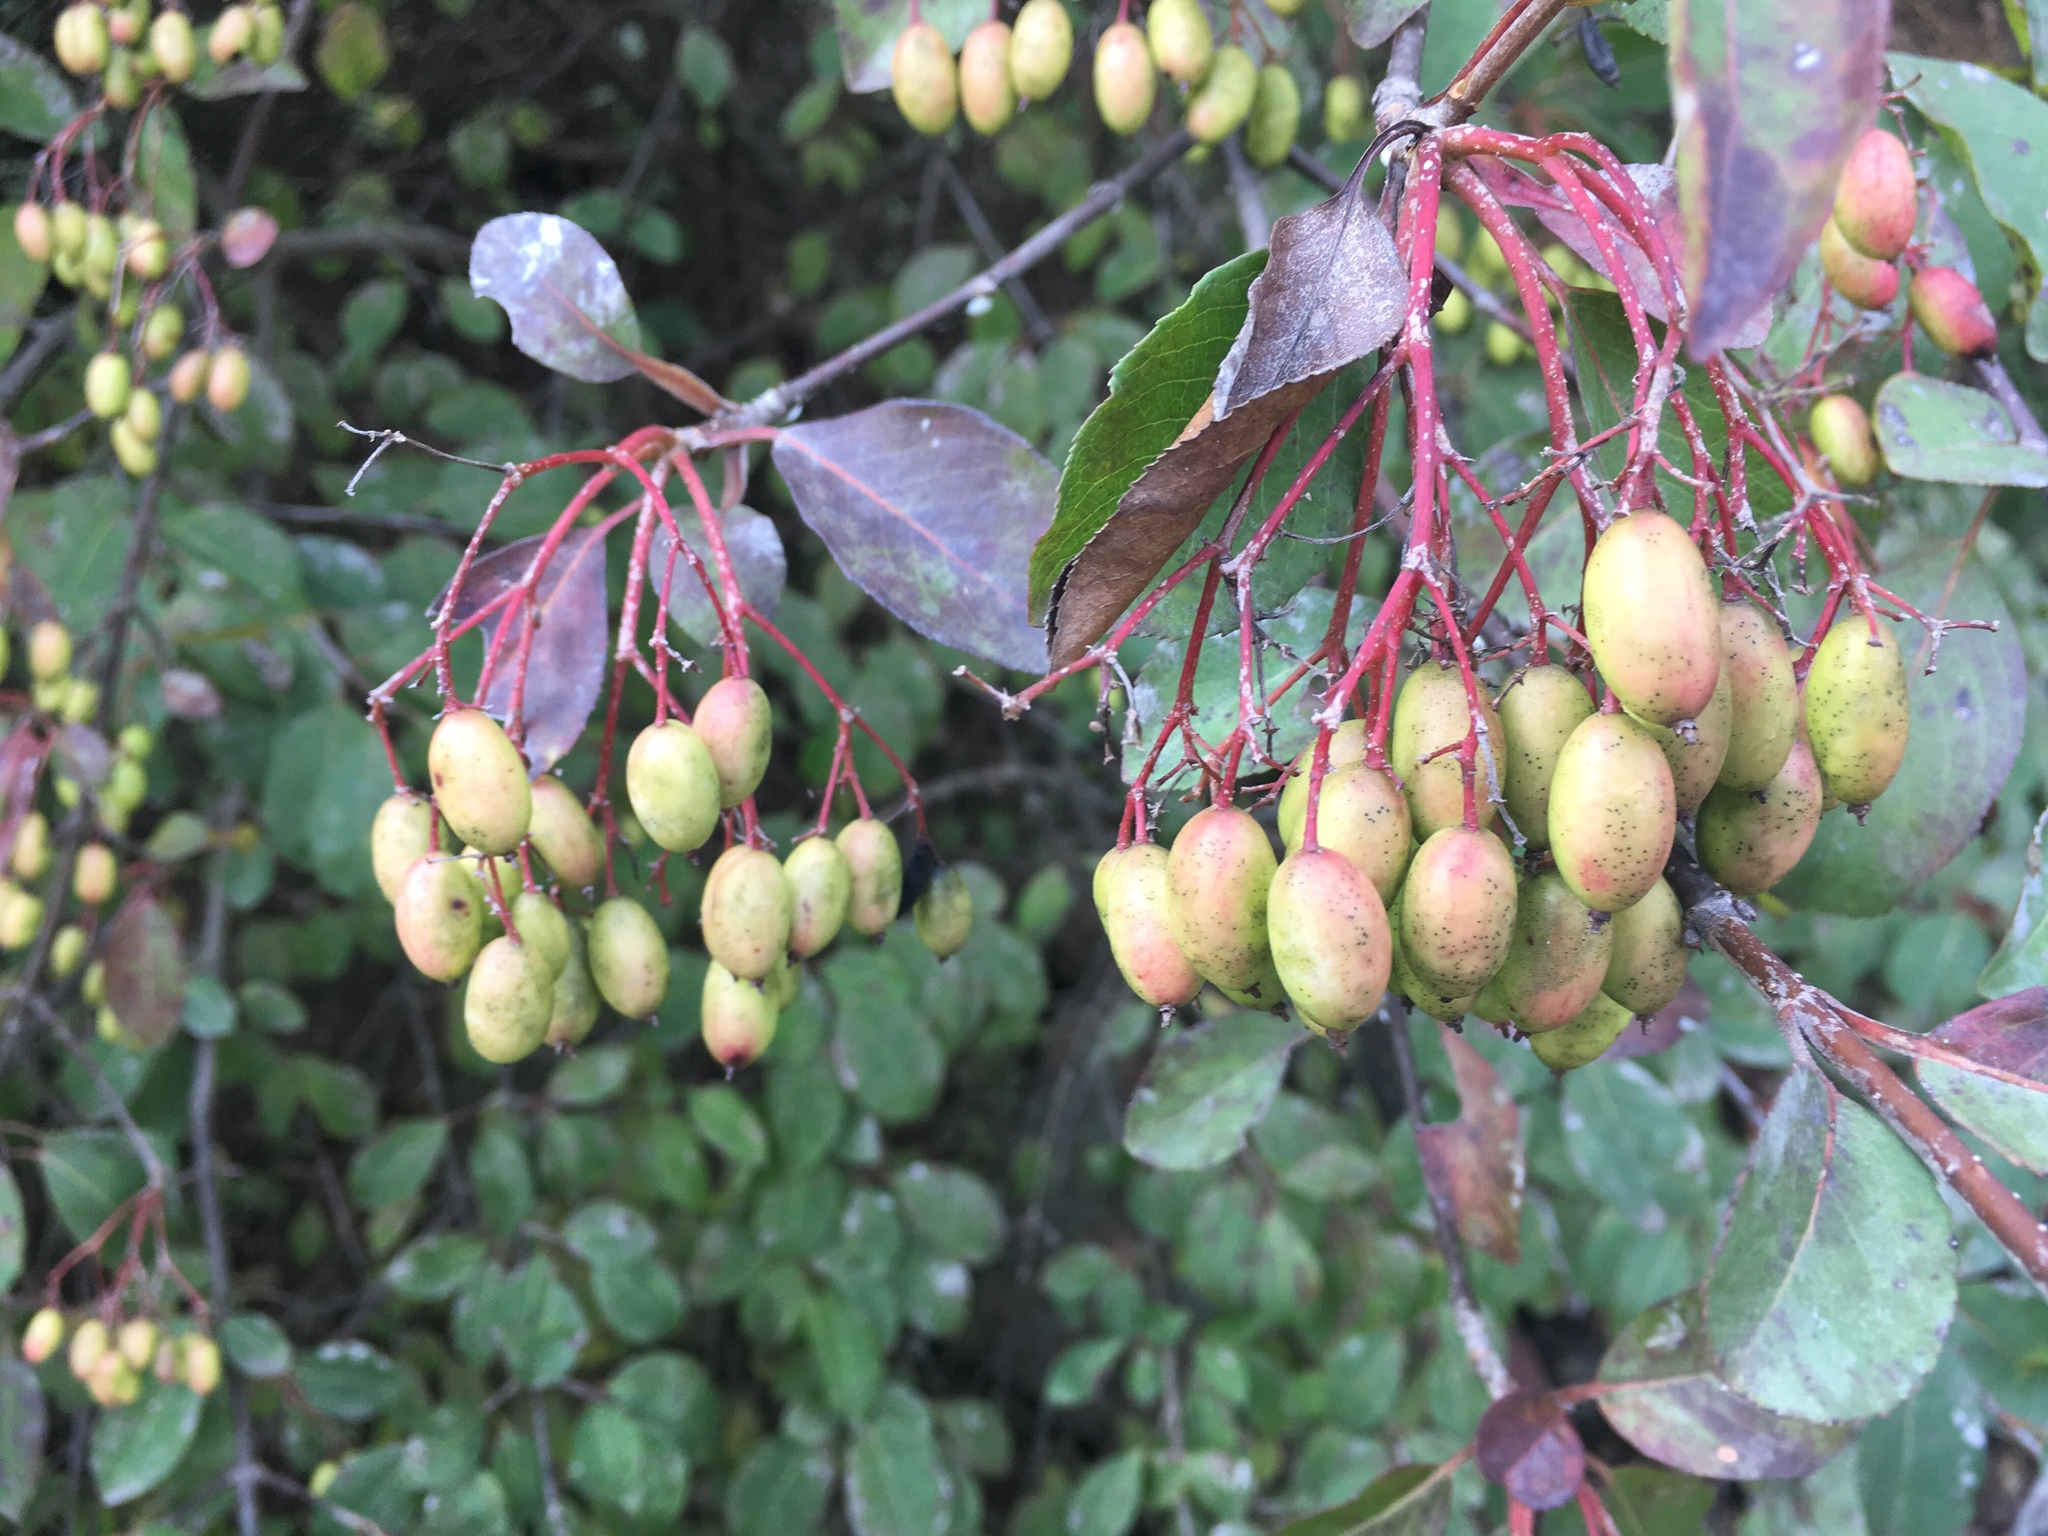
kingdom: Plantae
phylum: Tracheophyta
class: Magnoliopsida
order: Dipsacales
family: Viburnaceae
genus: Viburnum
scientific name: Viburnum prunifolium
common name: Black haw
